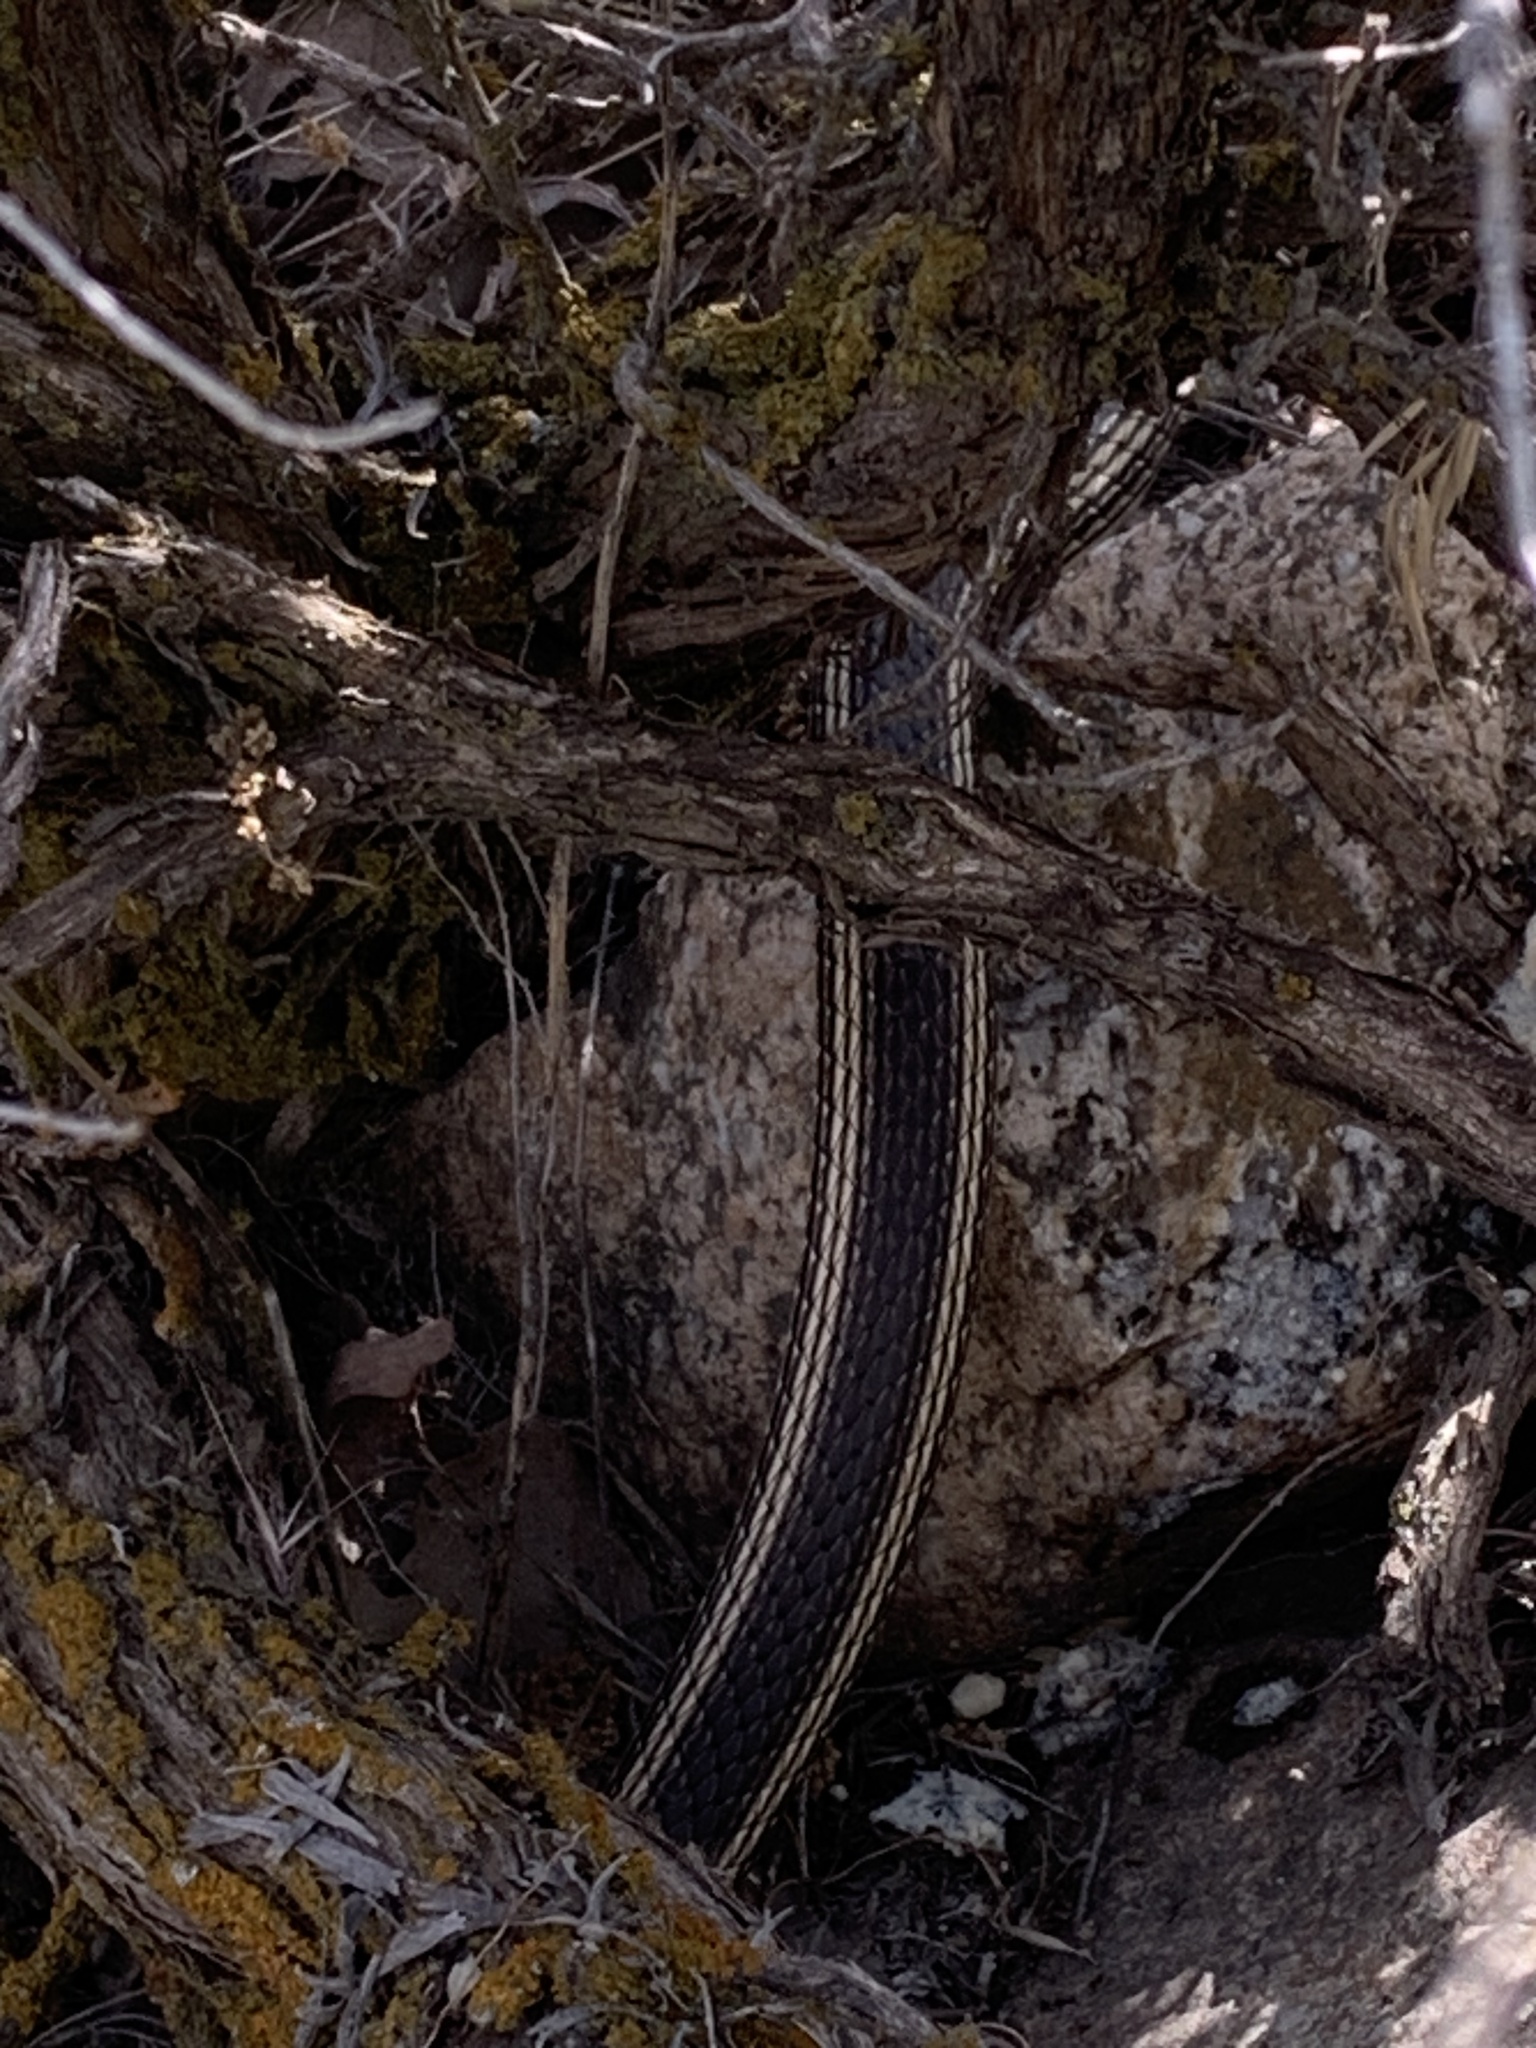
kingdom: Animalia
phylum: Chordata
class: Squamata
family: Colubridae
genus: Masticophis
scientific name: Masticophis taeniatus
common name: Striped whipsnake
